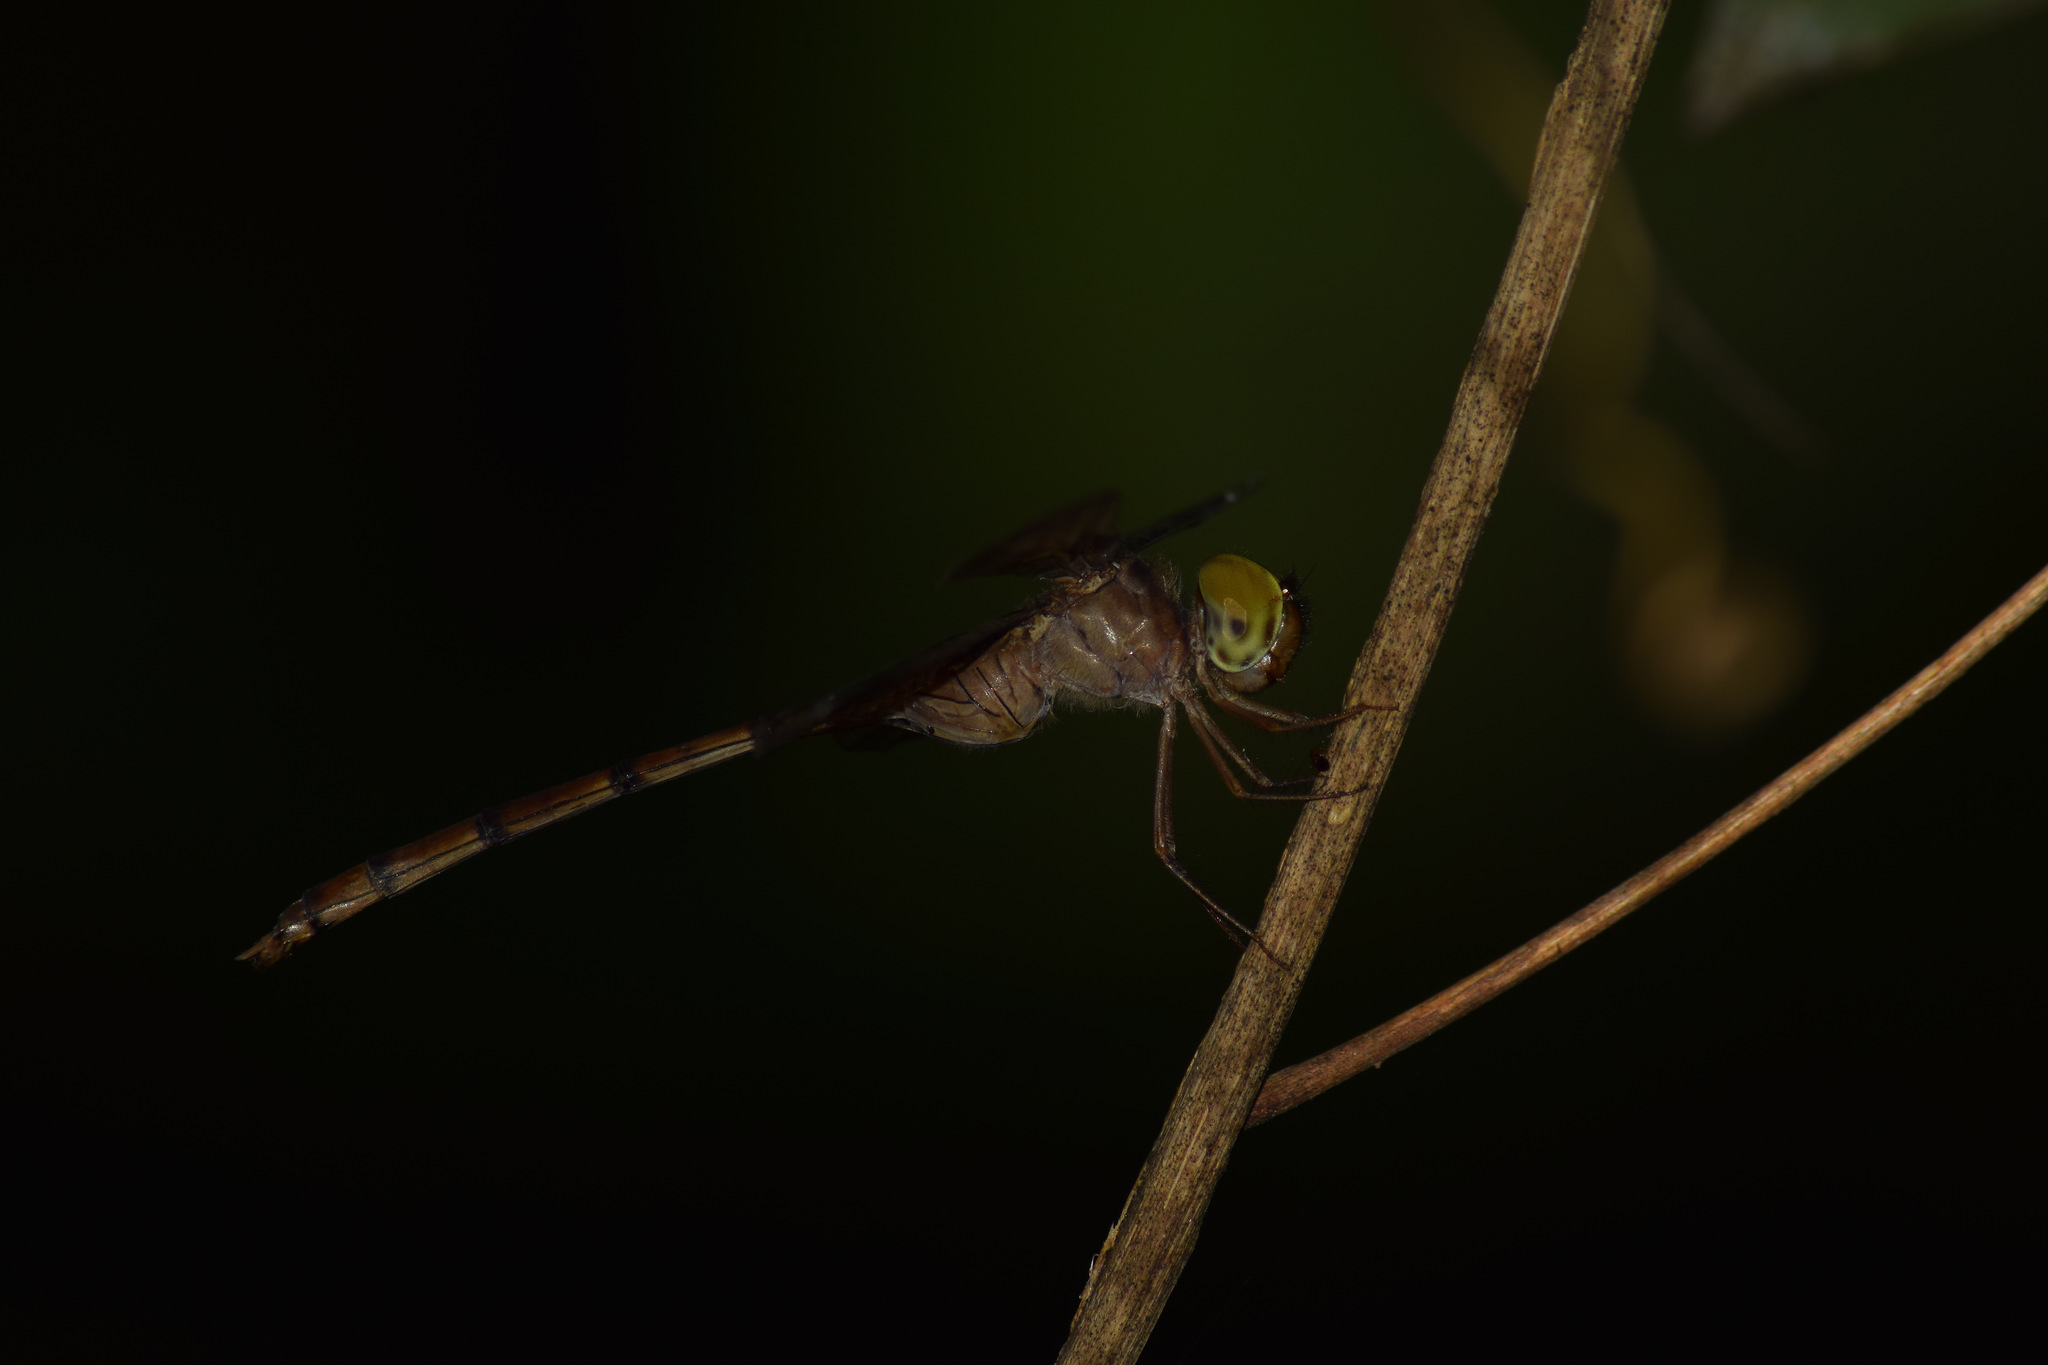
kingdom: Animalia
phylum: Arthropoda
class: Insecta
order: Odonata
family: Libellulidae
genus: Zyxomma
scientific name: Zyxomma petiolatum
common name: Dingy dusk-darter
